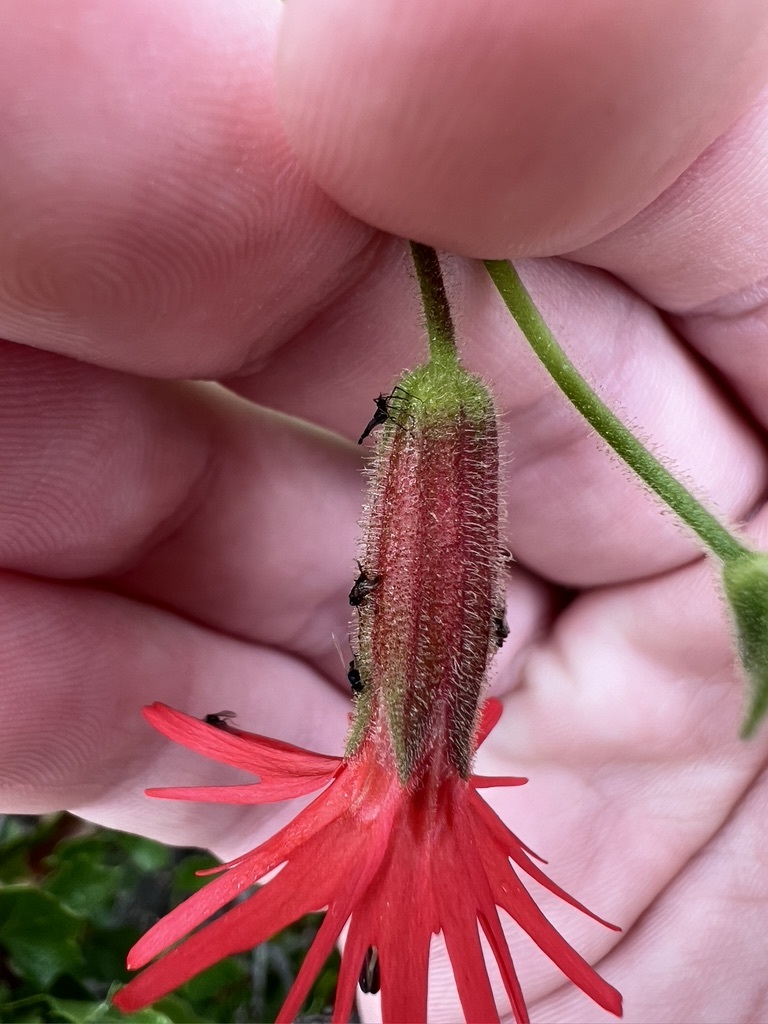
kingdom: Plantae
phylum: Tracheophyta
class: Magnoliopsida
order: Caryophyllales
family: Caryophyllaceae
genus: Silene
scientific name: Silene laciniata
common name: Indian-pink
